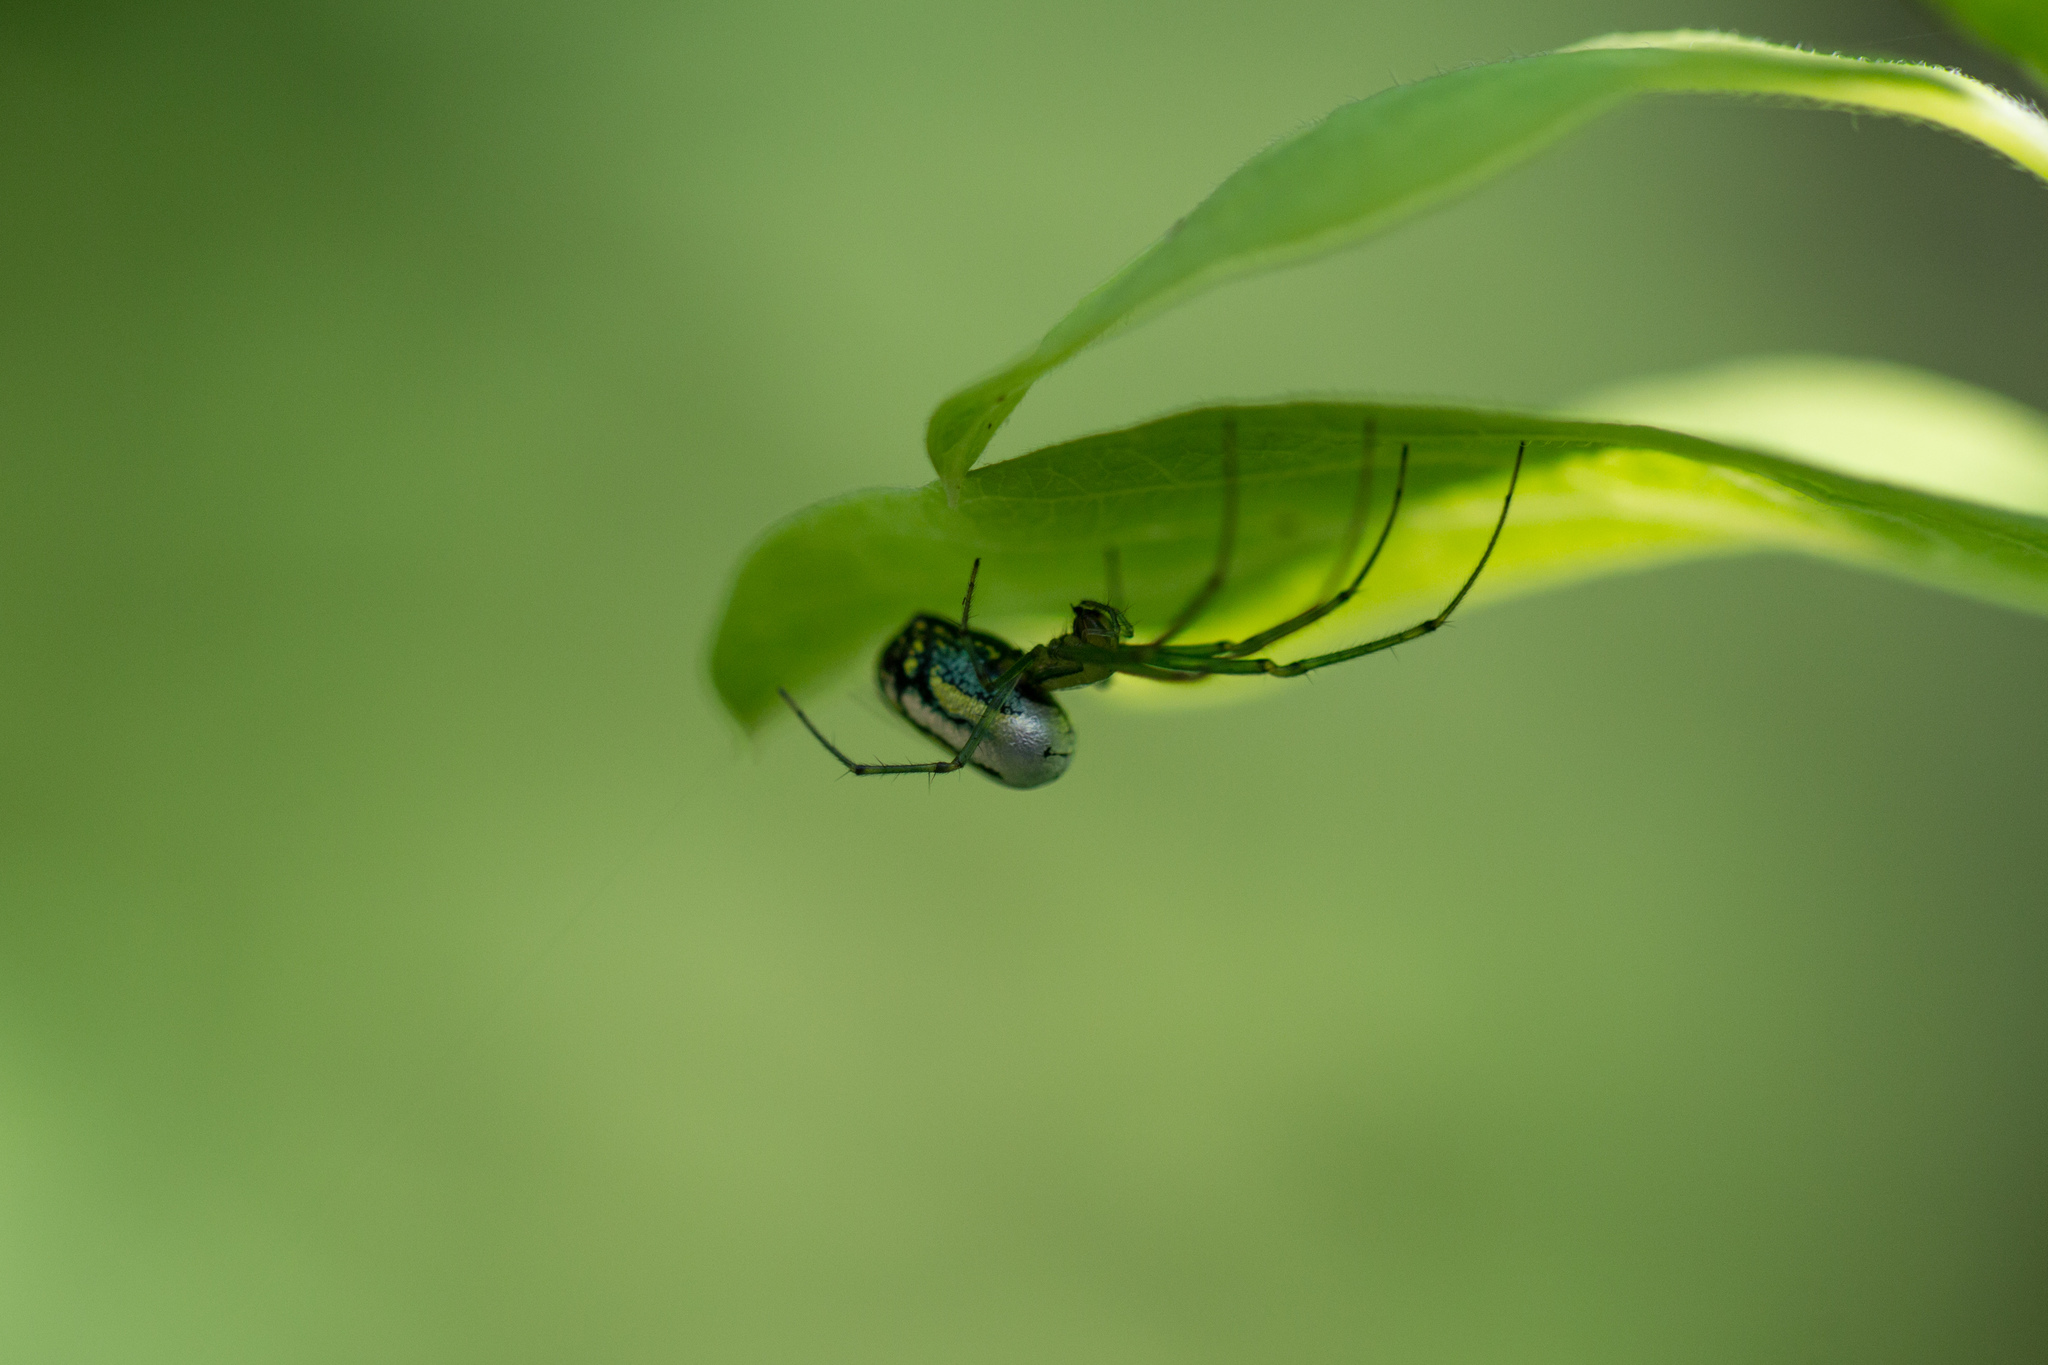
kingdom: Animalia
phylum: Arthropoda
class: Arachnida
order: Araneae
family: Tetragnathidae
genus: Leucauge
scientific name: Leucauge venusta
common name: Longjawed orb weavers
